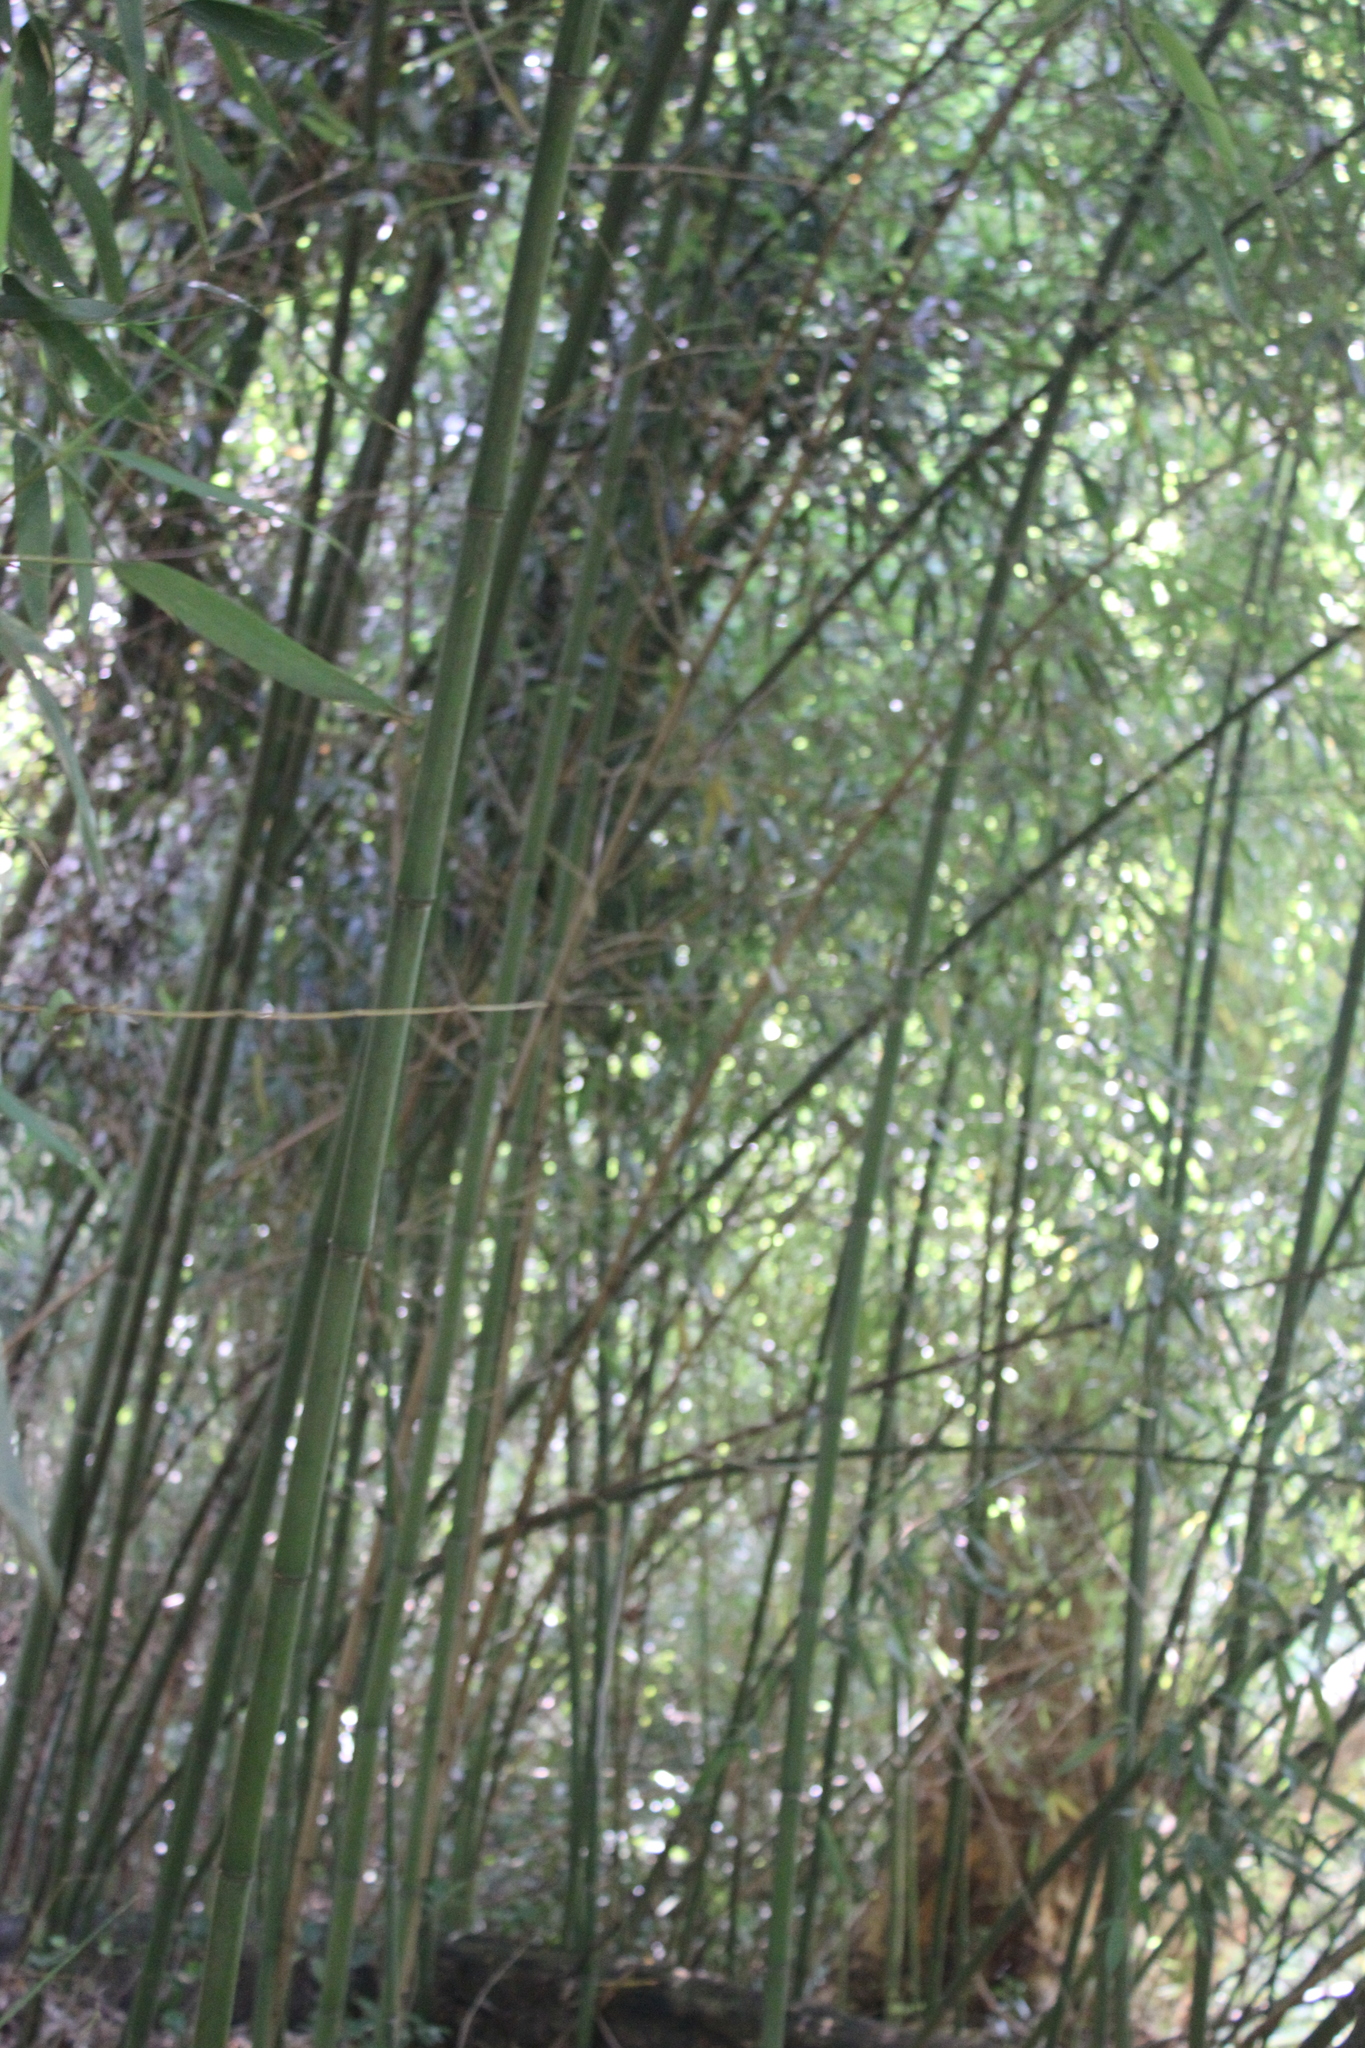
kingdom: Plantae
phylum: Tracheophyta
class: Liliopsida
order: Poales
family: Poaceae
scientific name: Poaceae
